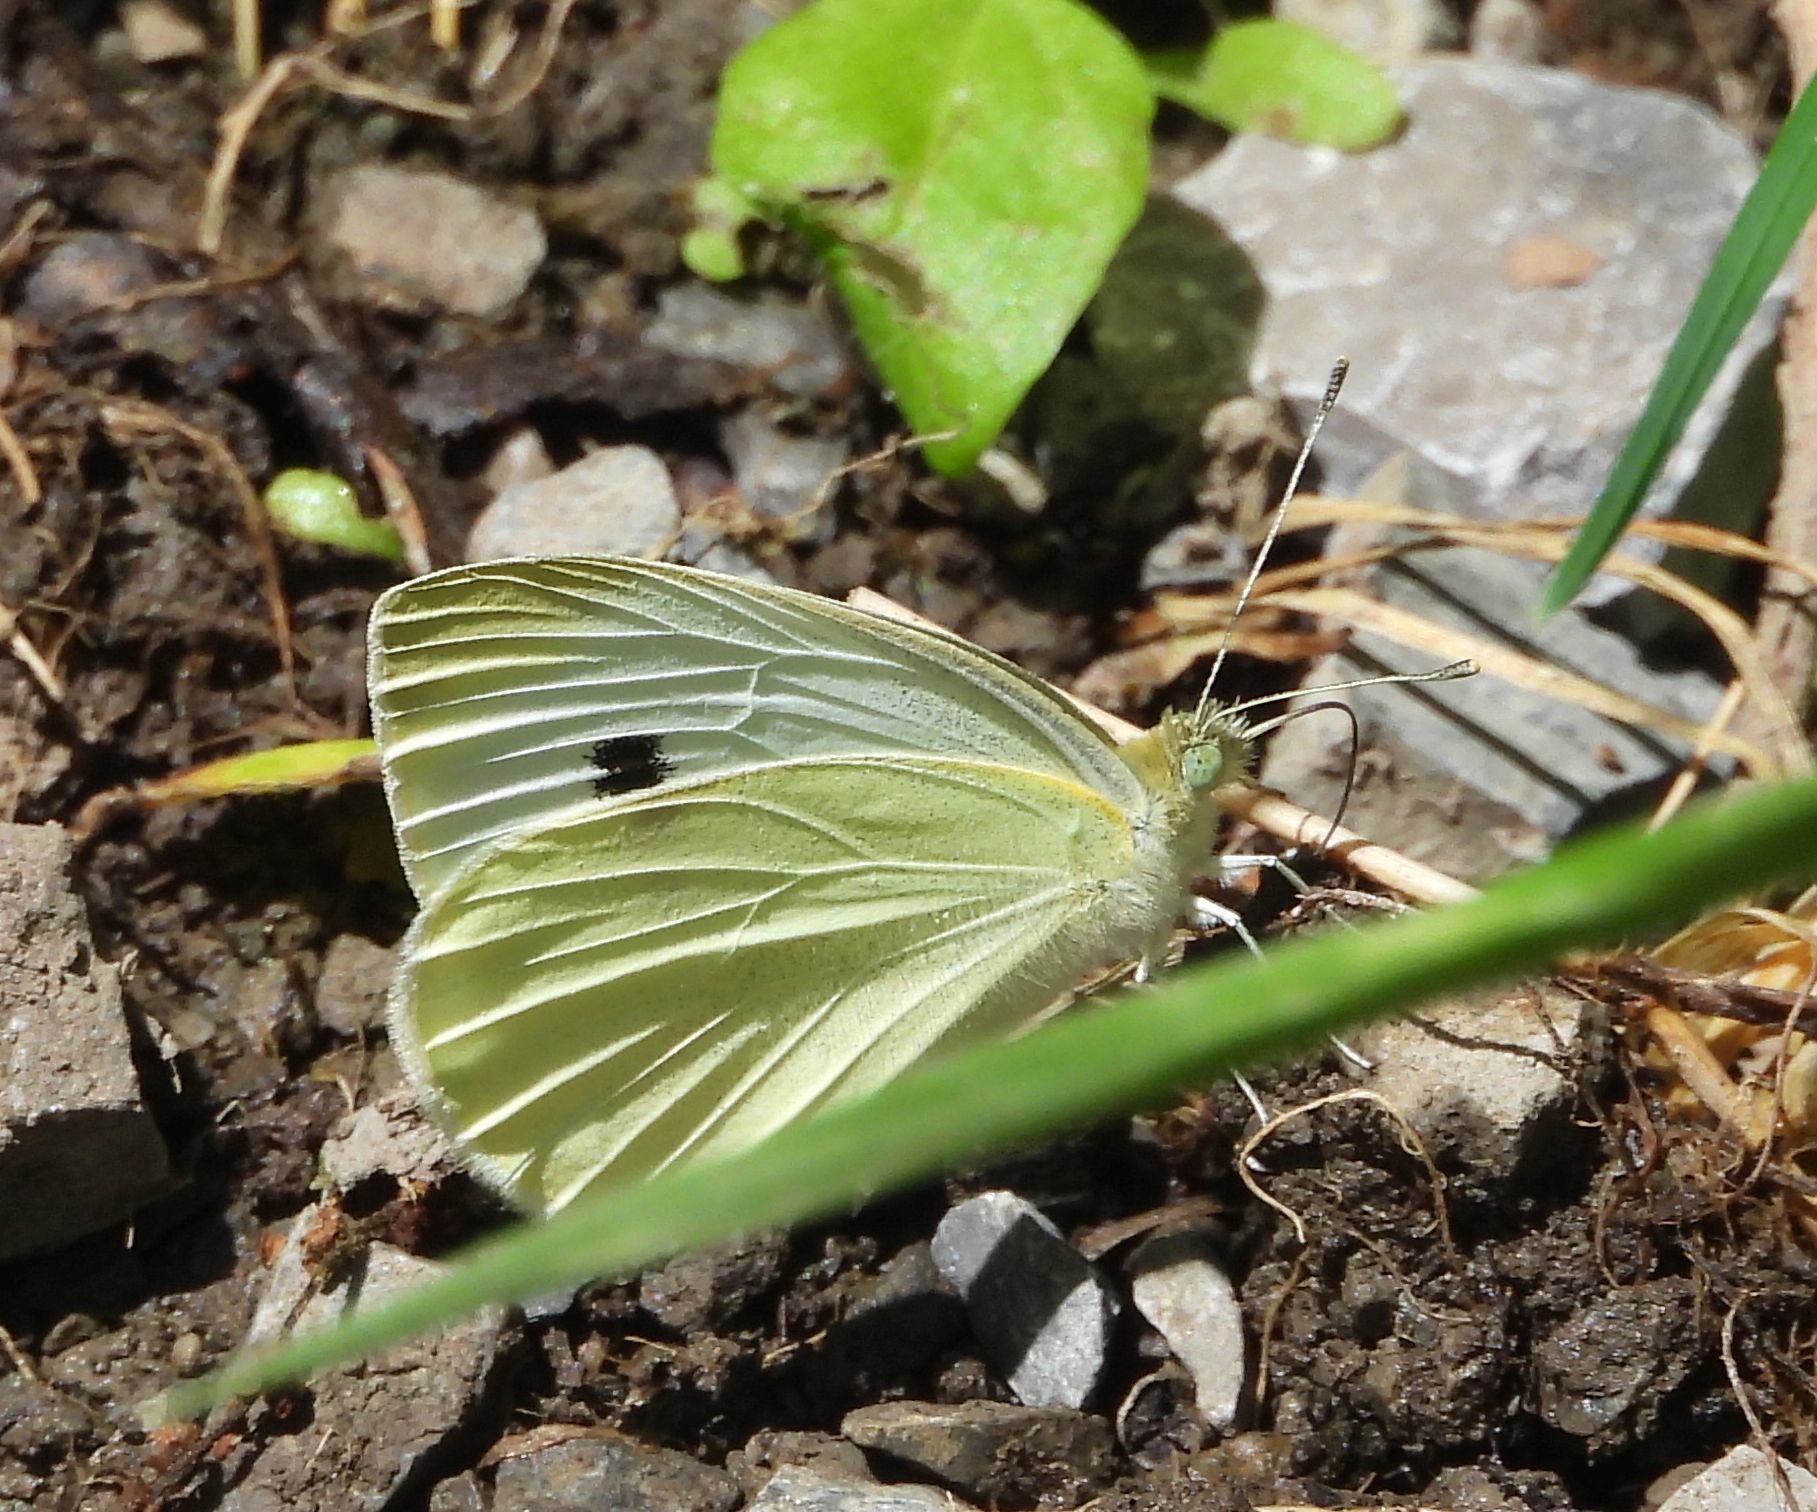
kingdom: Animalia
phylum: Arthropoda
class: Insecta
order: Lepidoptera
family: Pieridae
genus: Pieris
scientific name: Pieris rapae
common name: Small white
